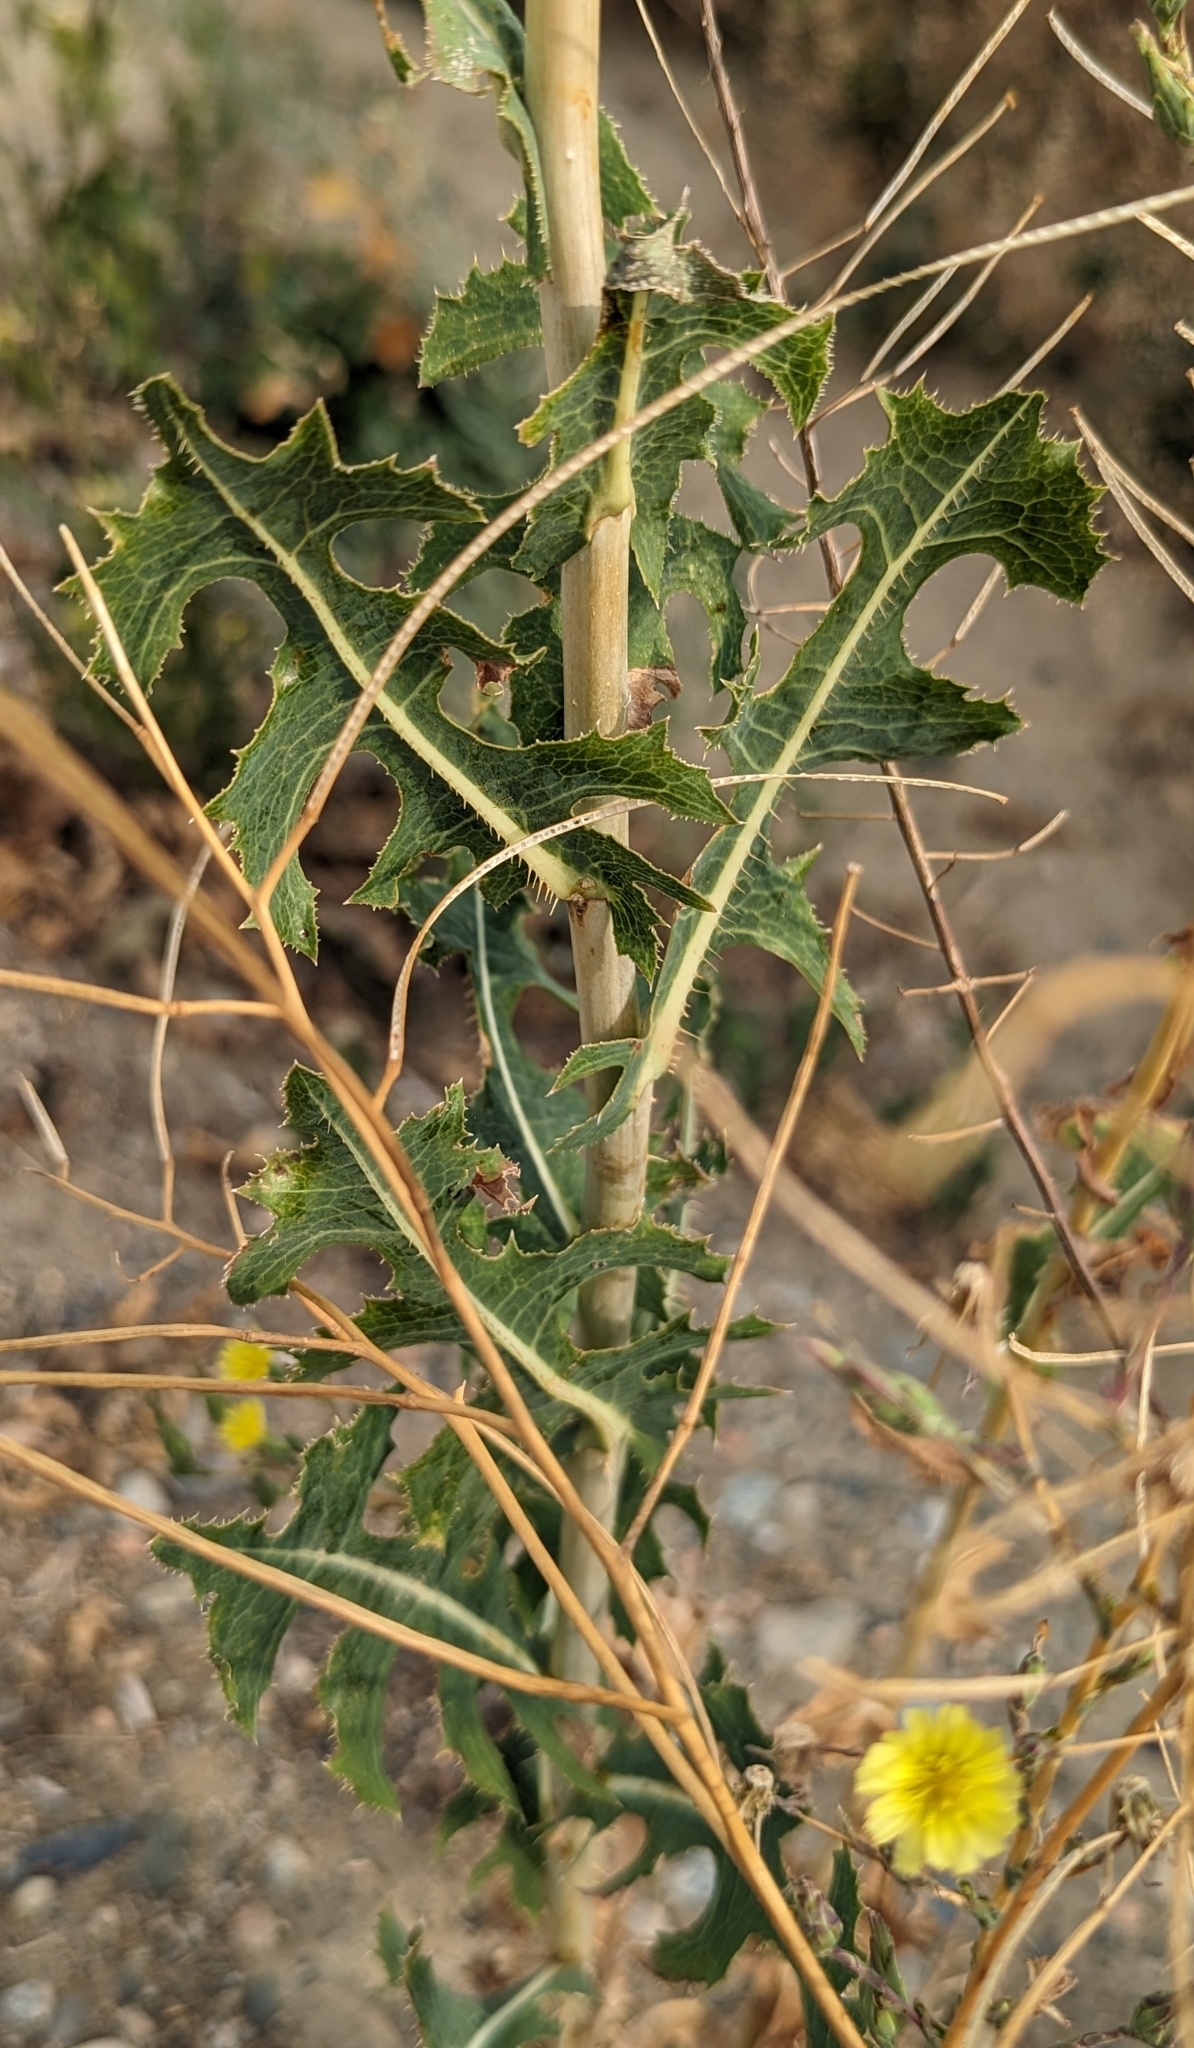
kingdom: Plantae
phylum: Tracheophyta
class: Magnoliopsida
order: Asterales
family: Asteraceae
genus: Lactuca
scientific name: Lactuca serriola
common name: Prickly lettuce
